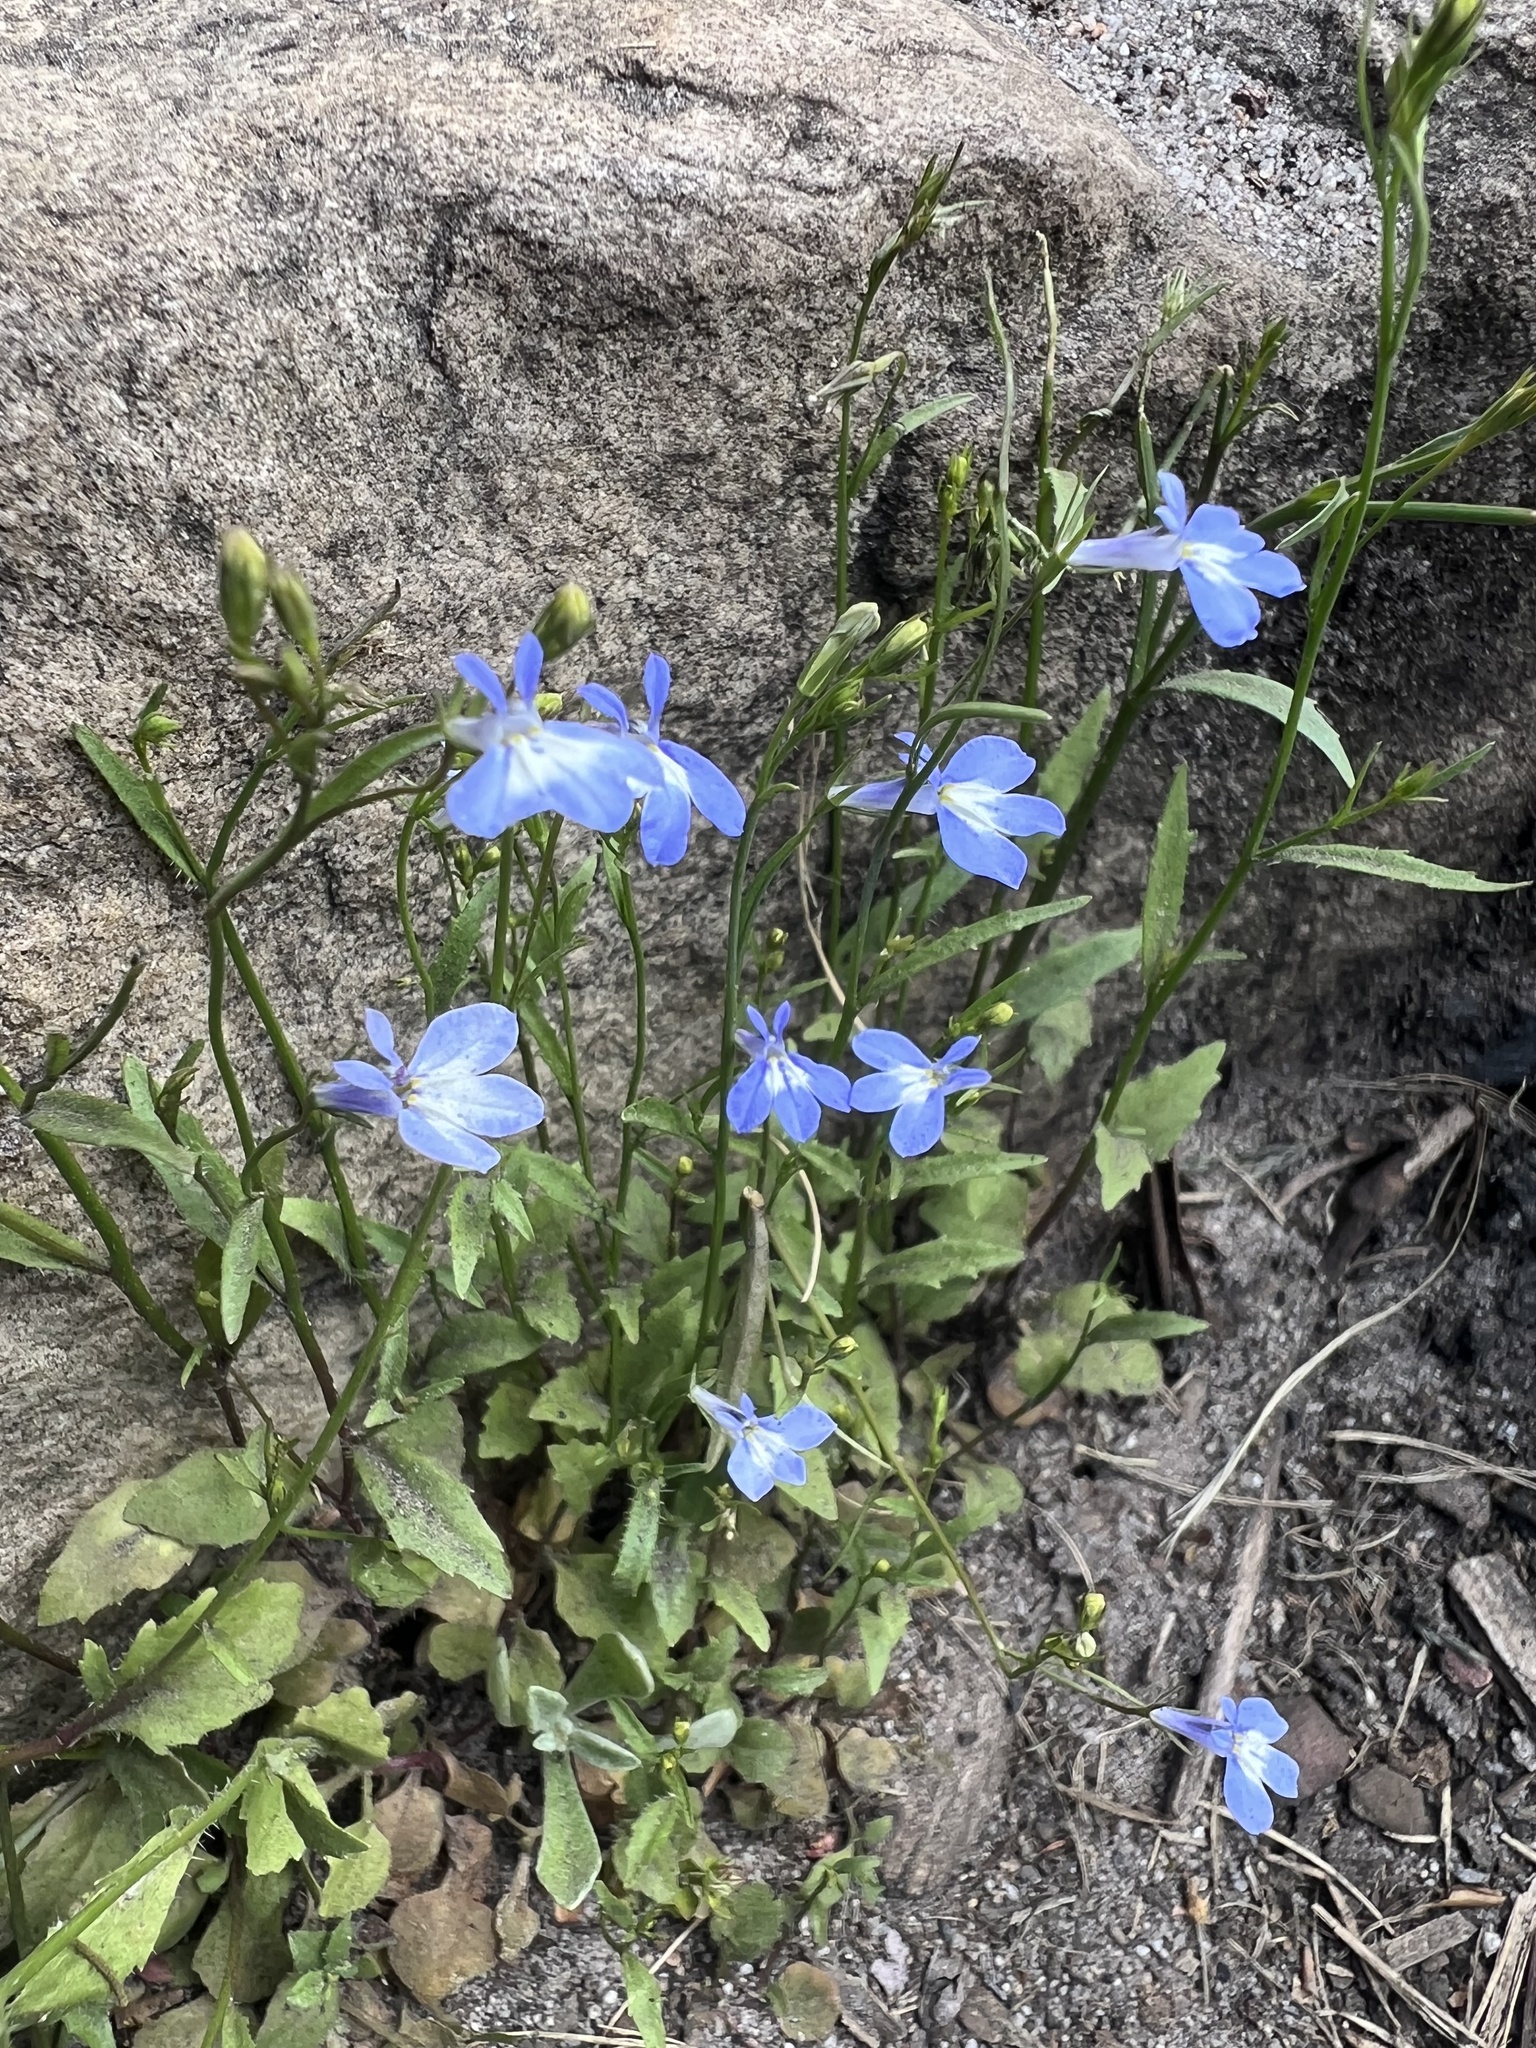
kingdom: Plantae
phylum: Tracheophyta
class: Magnoliopsida
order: Asterales
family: Campanulaceae
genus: Lobelia
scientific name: Lobelia erinus
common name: Edging lobelia
